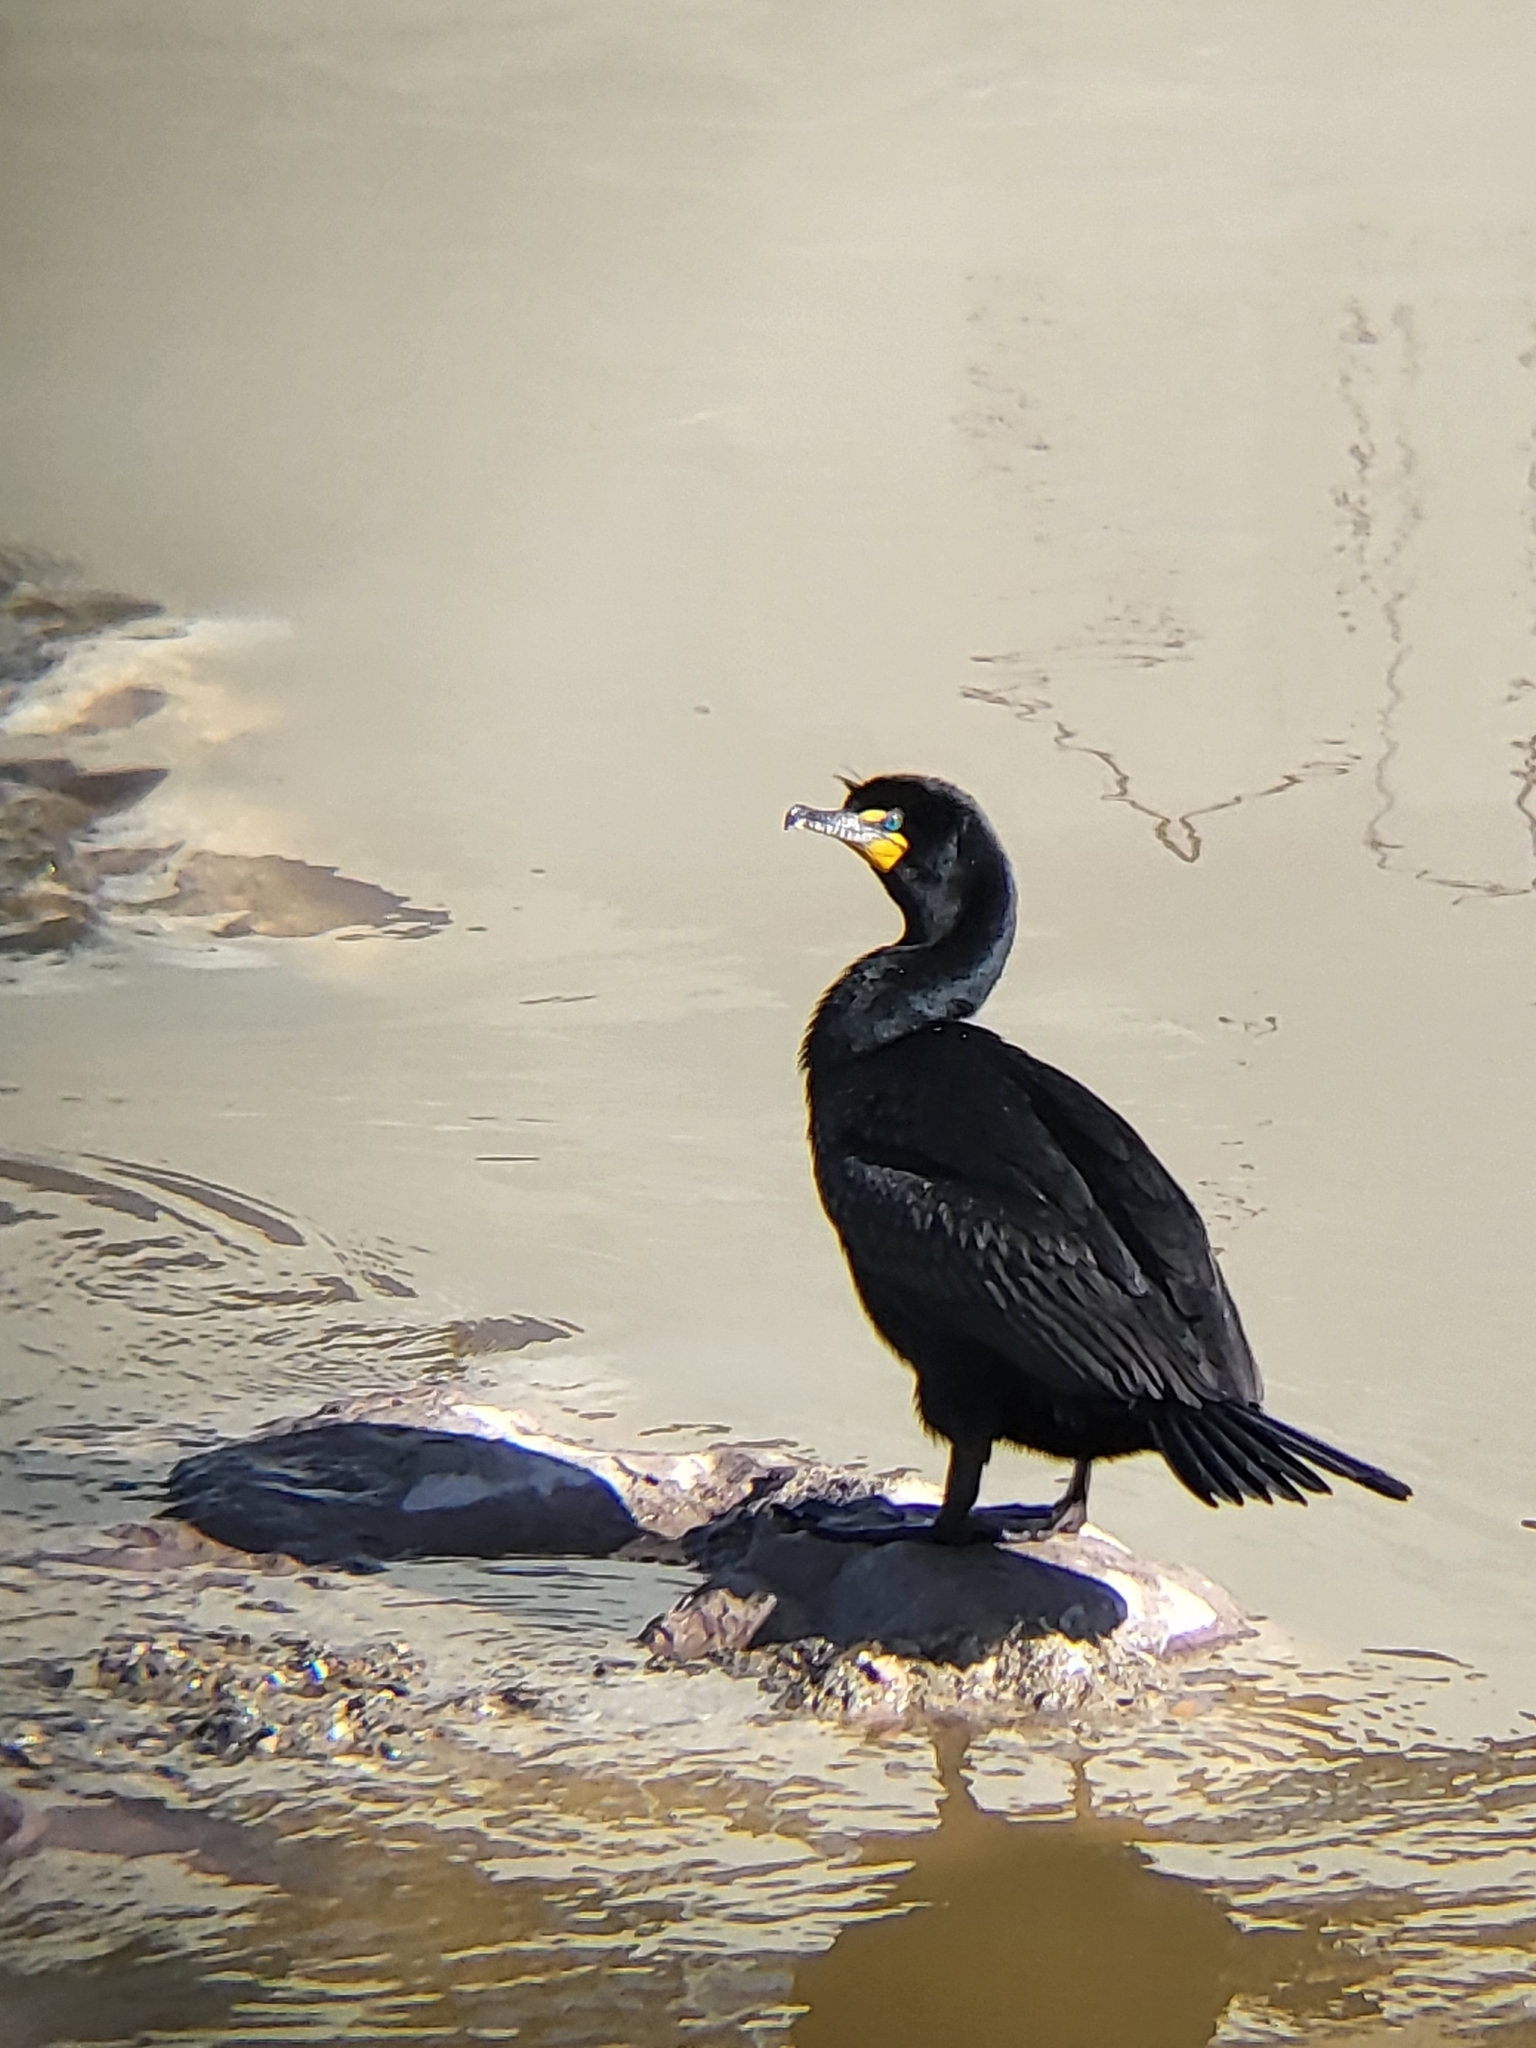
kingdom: Animalia
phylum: Chordata
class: Aves
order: Suliformes
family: Phalacrocoracidae
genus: Phalacrocorax
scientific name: Phalacrocorax auritus
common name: Double-crested cormorant
